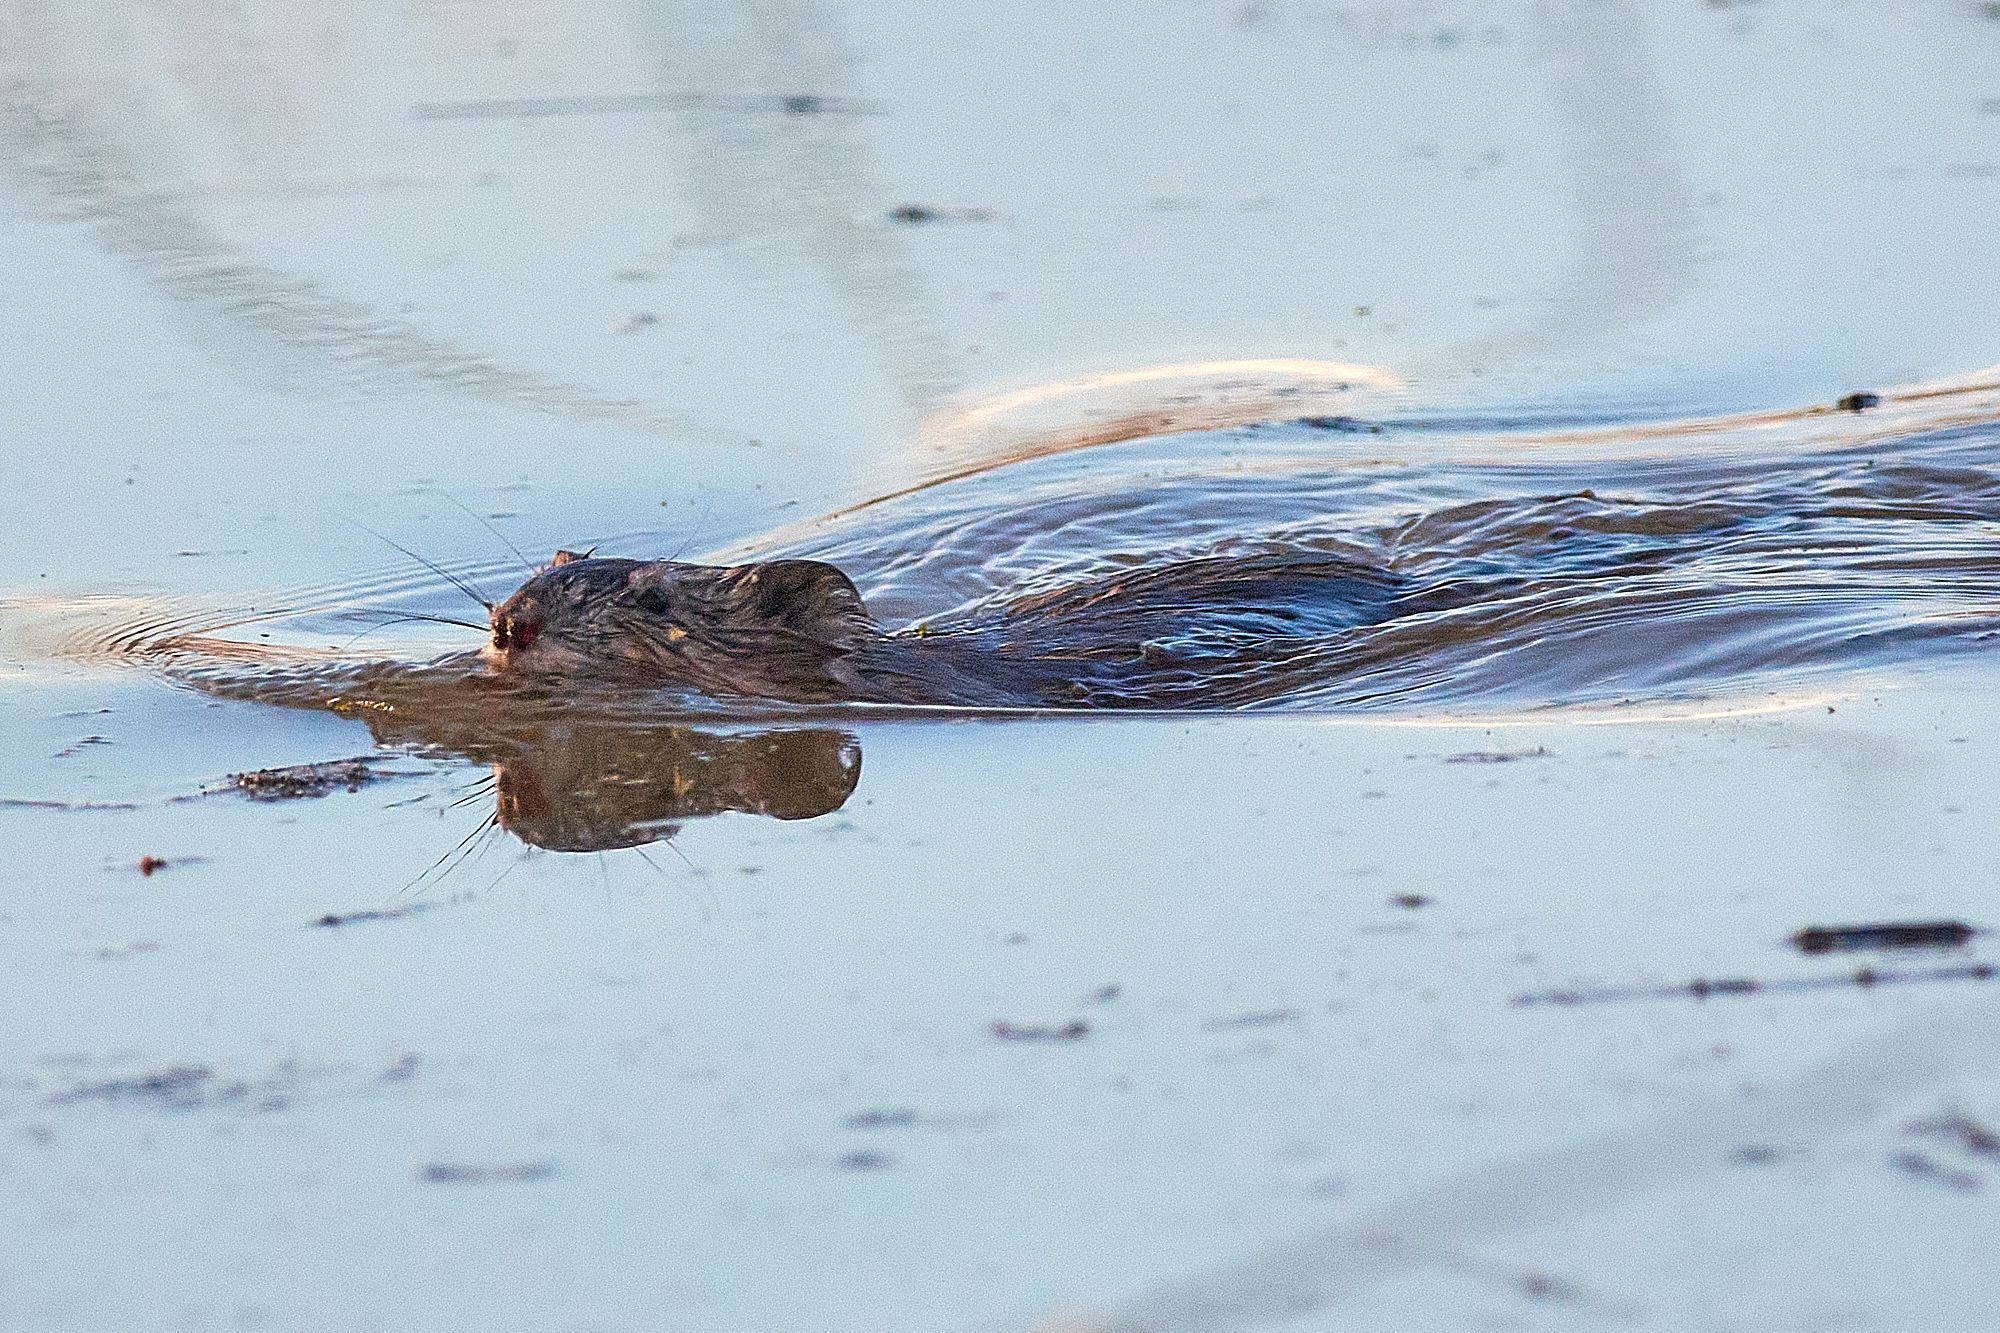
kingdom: Animalia
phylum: Chordata
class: Mammalia
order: Rodentia
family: Cricetidae
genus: Ondatra
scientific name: Ondatra zibethicus
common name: Muskrat
